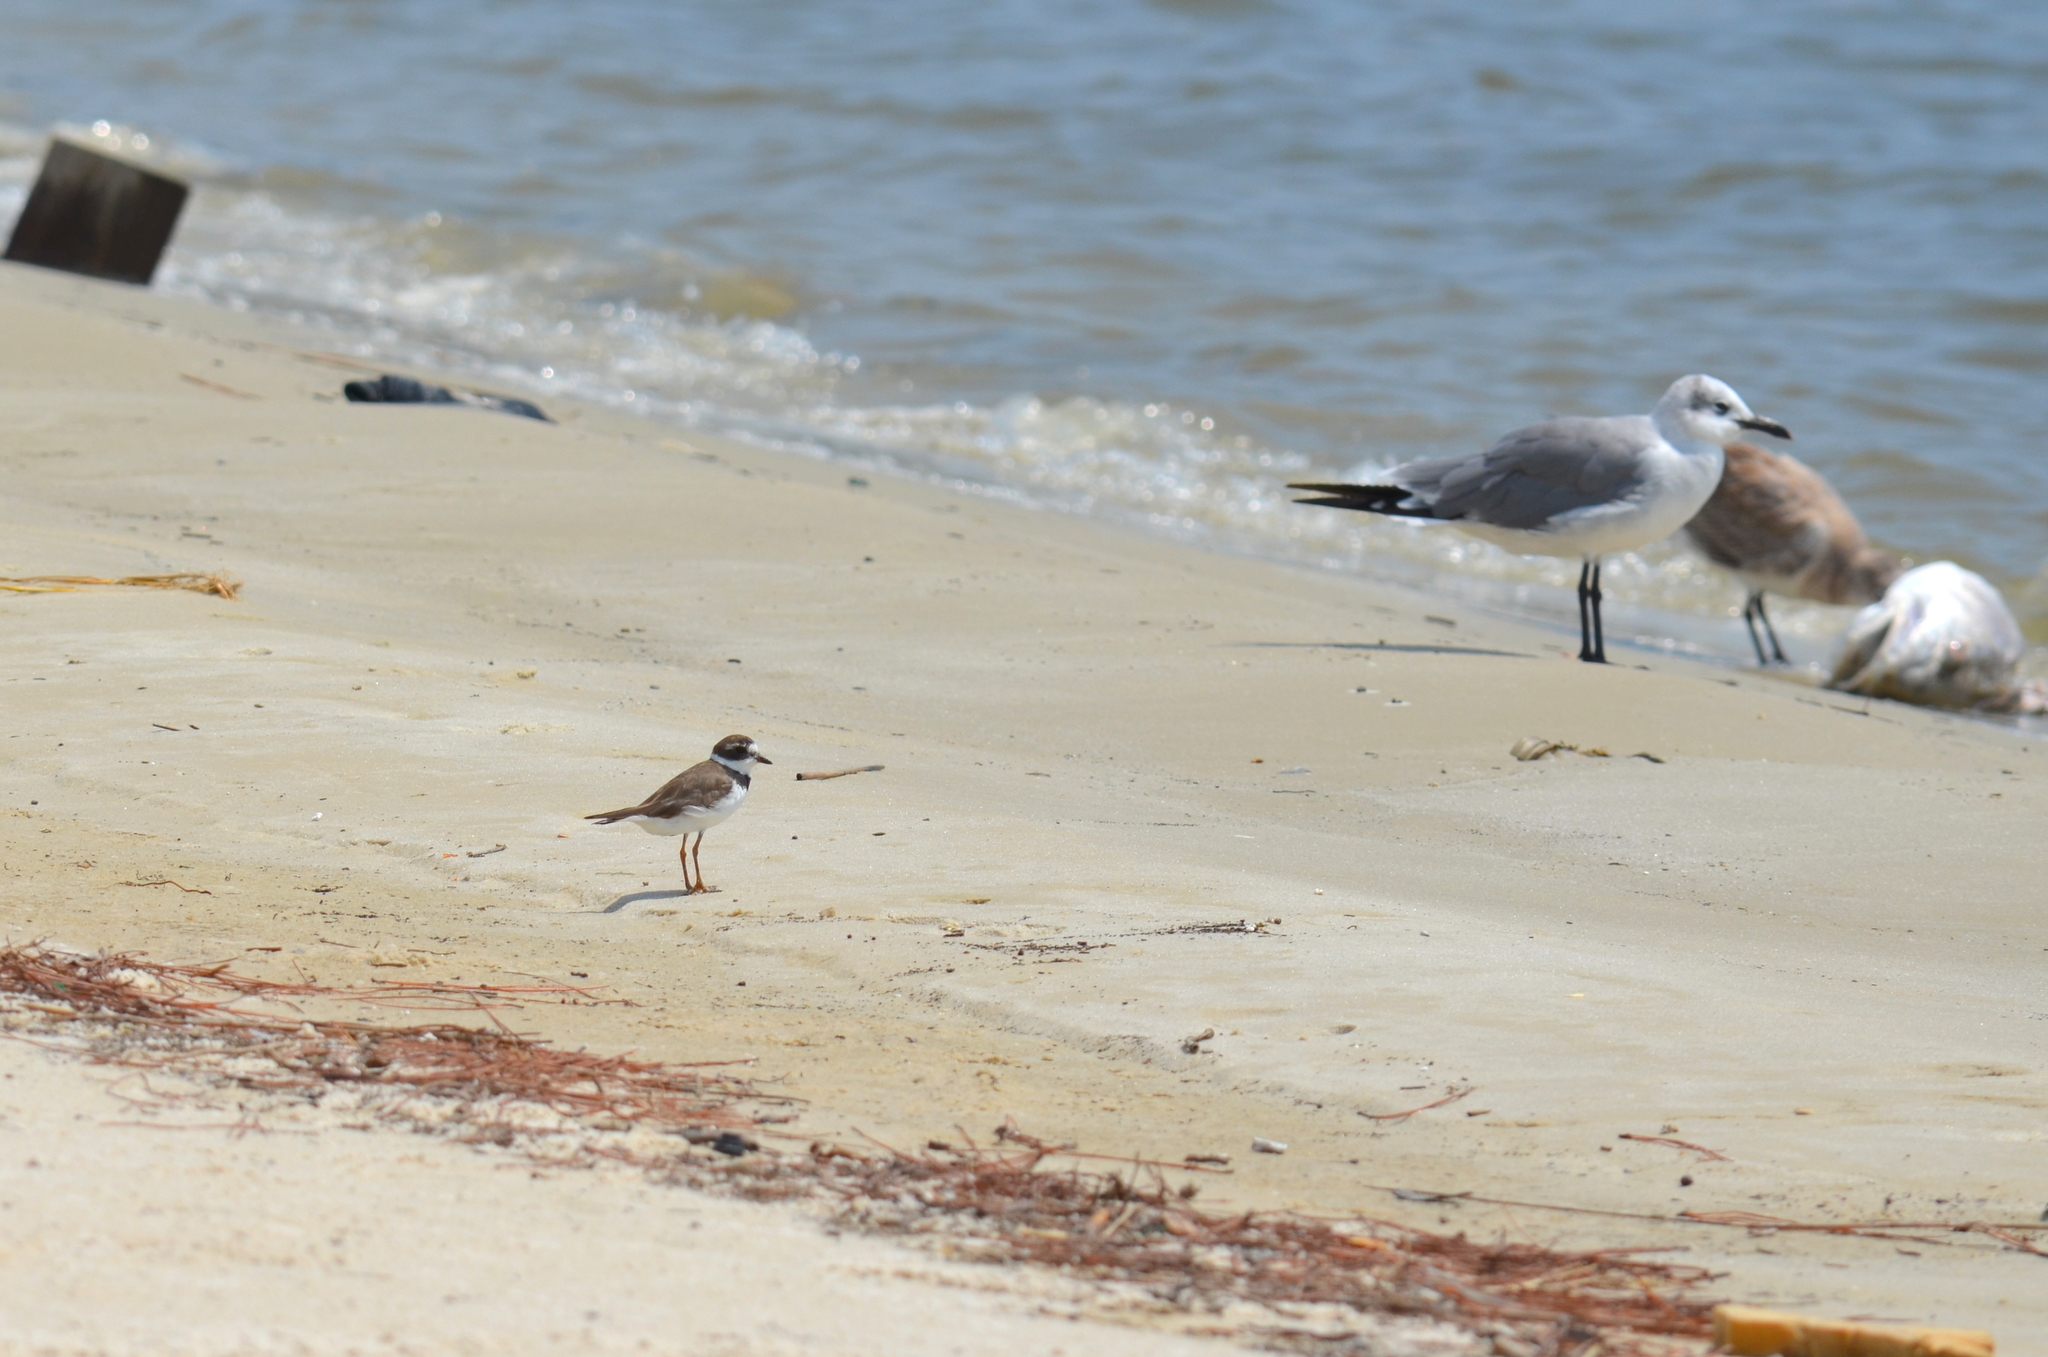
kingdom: Animalia
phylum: Chordata
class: Aves
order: Charadriiformes
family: Charadriidae
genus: Charadrius
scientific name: Charadrius semipalmatus
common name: Semipalmated plover
